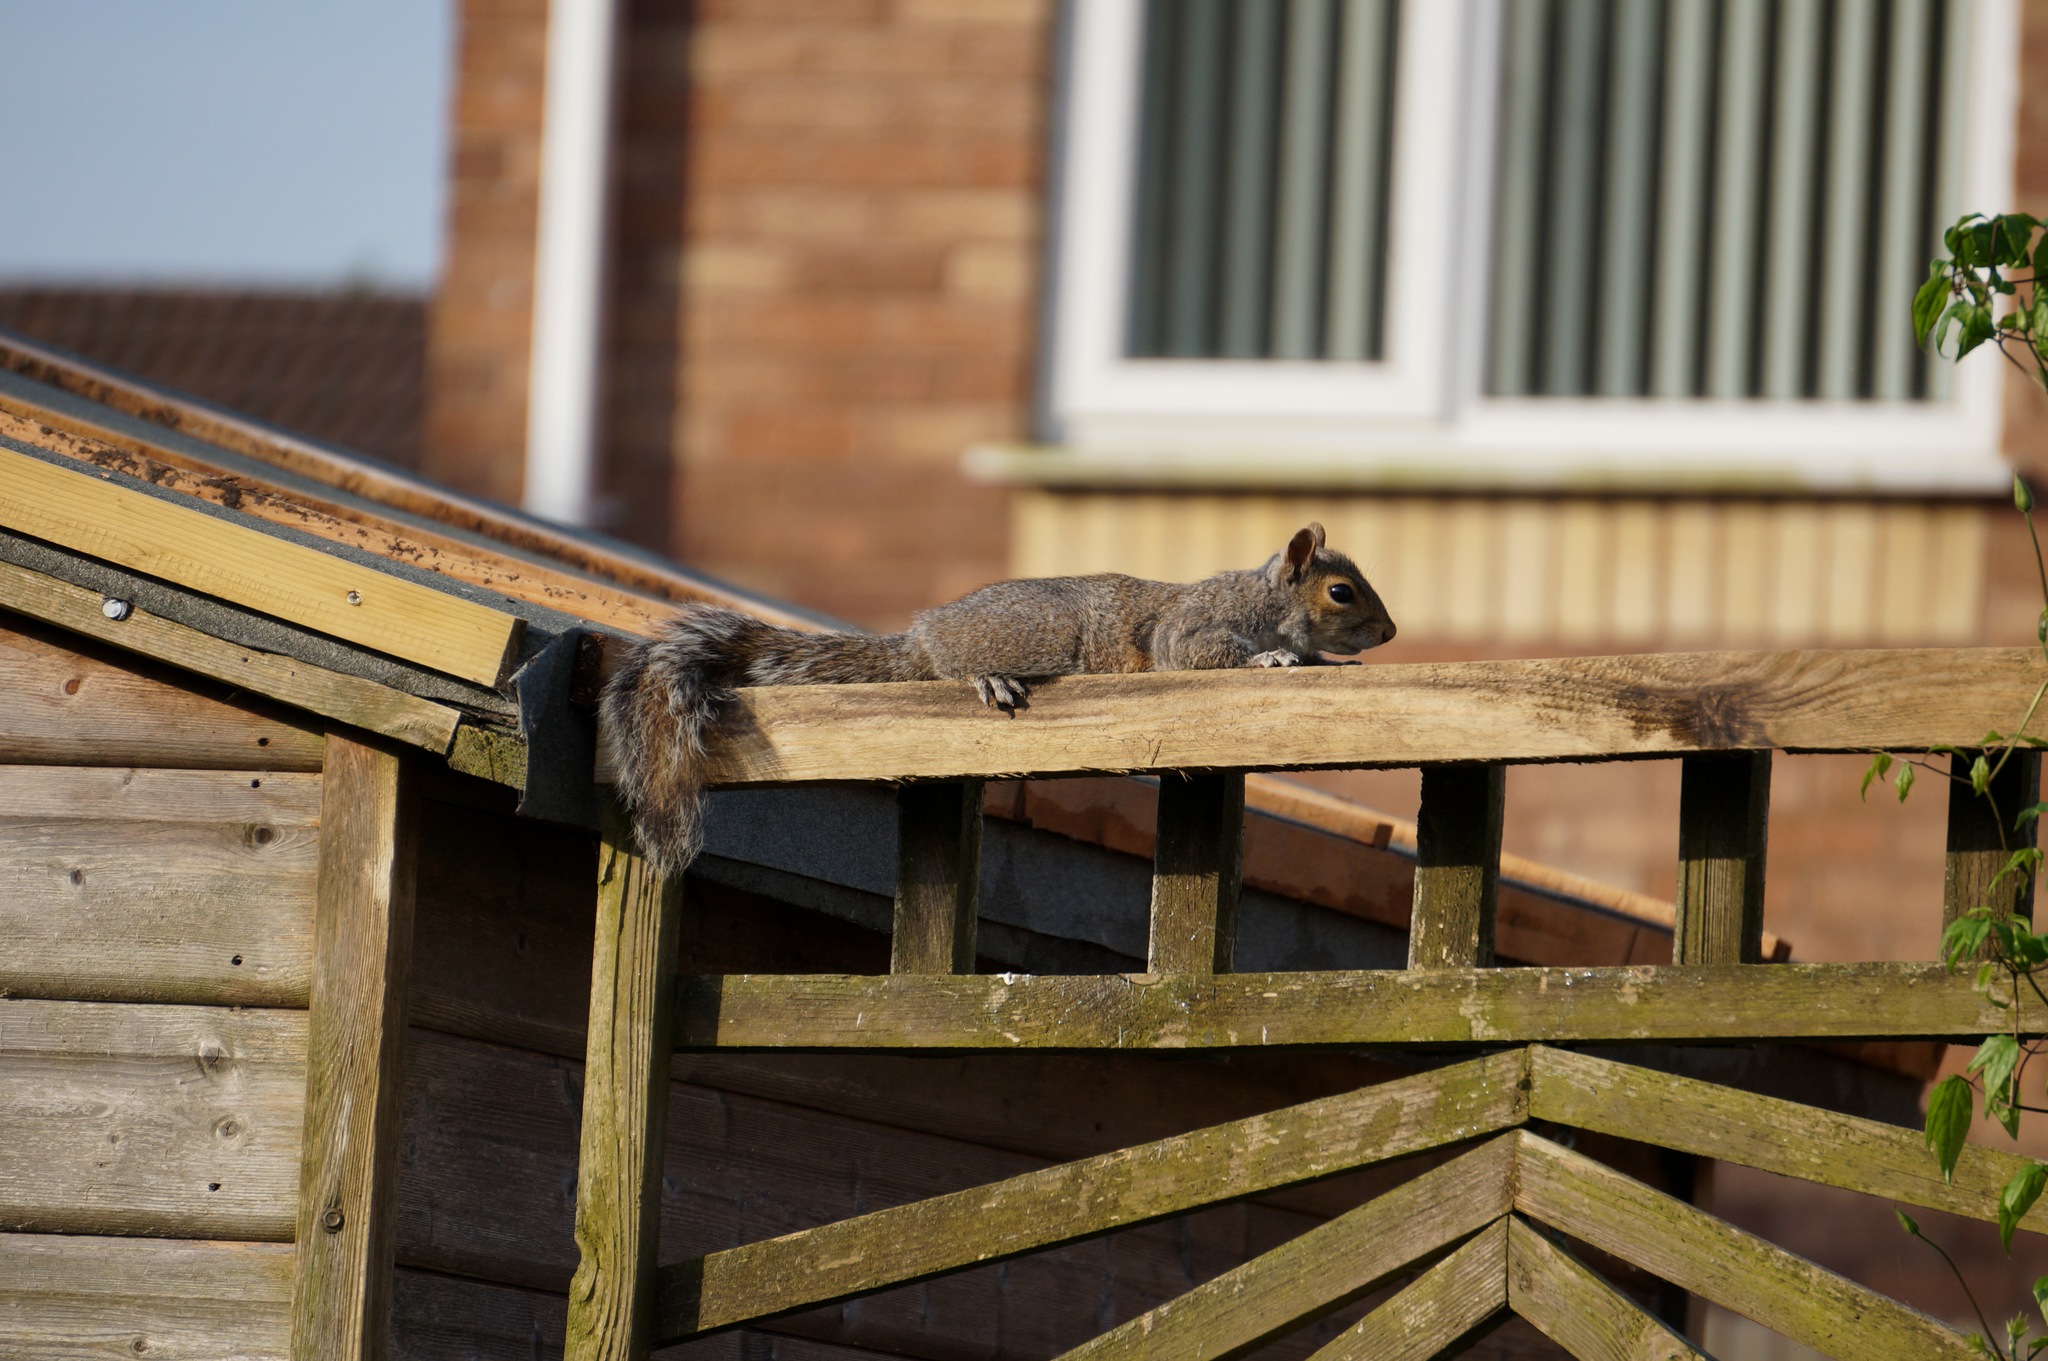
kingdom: Animalia
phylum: Chordata
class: Mammalia
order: Rodentia
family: Sciuridae
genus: Sciurus
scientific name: Sciurus carolinensis
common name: Eastern gray squirrel
